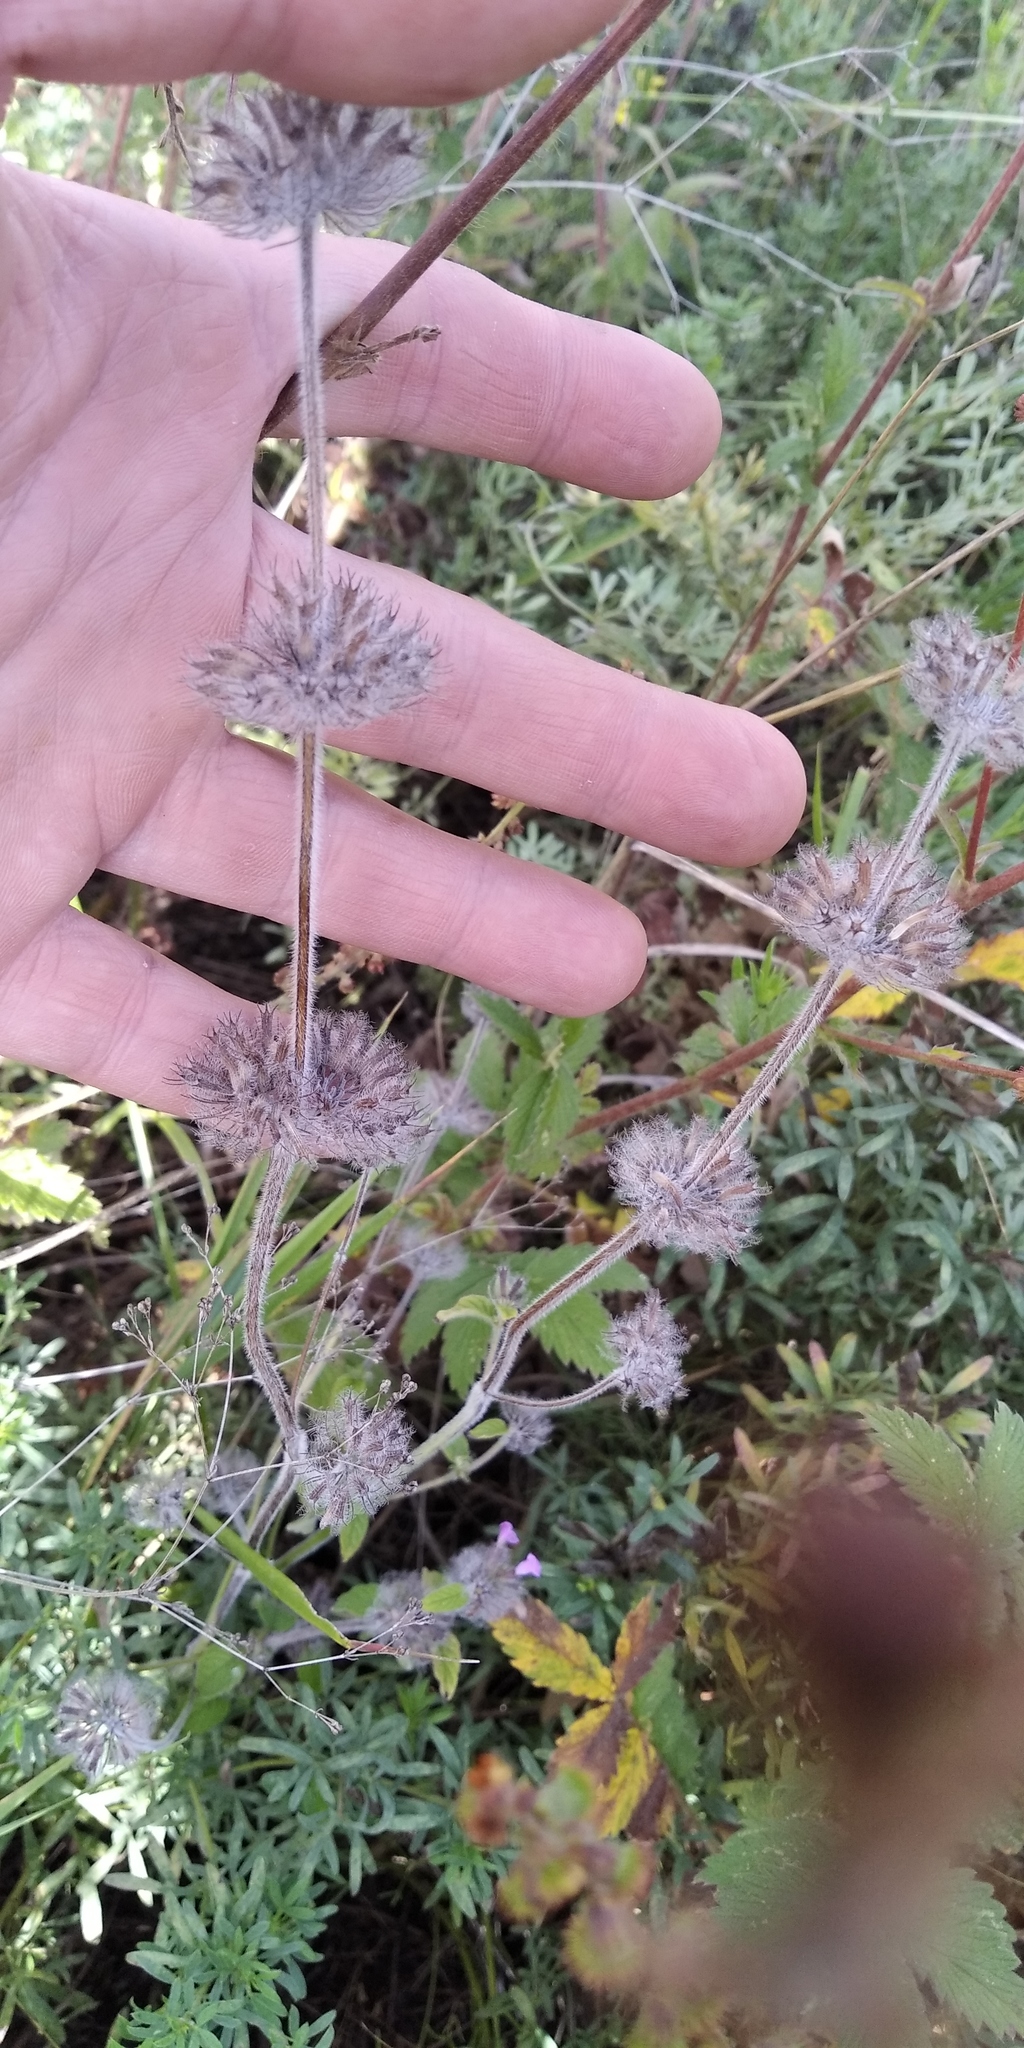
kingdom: Plantae
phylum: Tracheophyta
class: Magnoliopsida
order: Lamiales
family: Lamiaceae
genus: Clinopodium
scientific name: Clinopodium vulgare
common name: Wild basil
